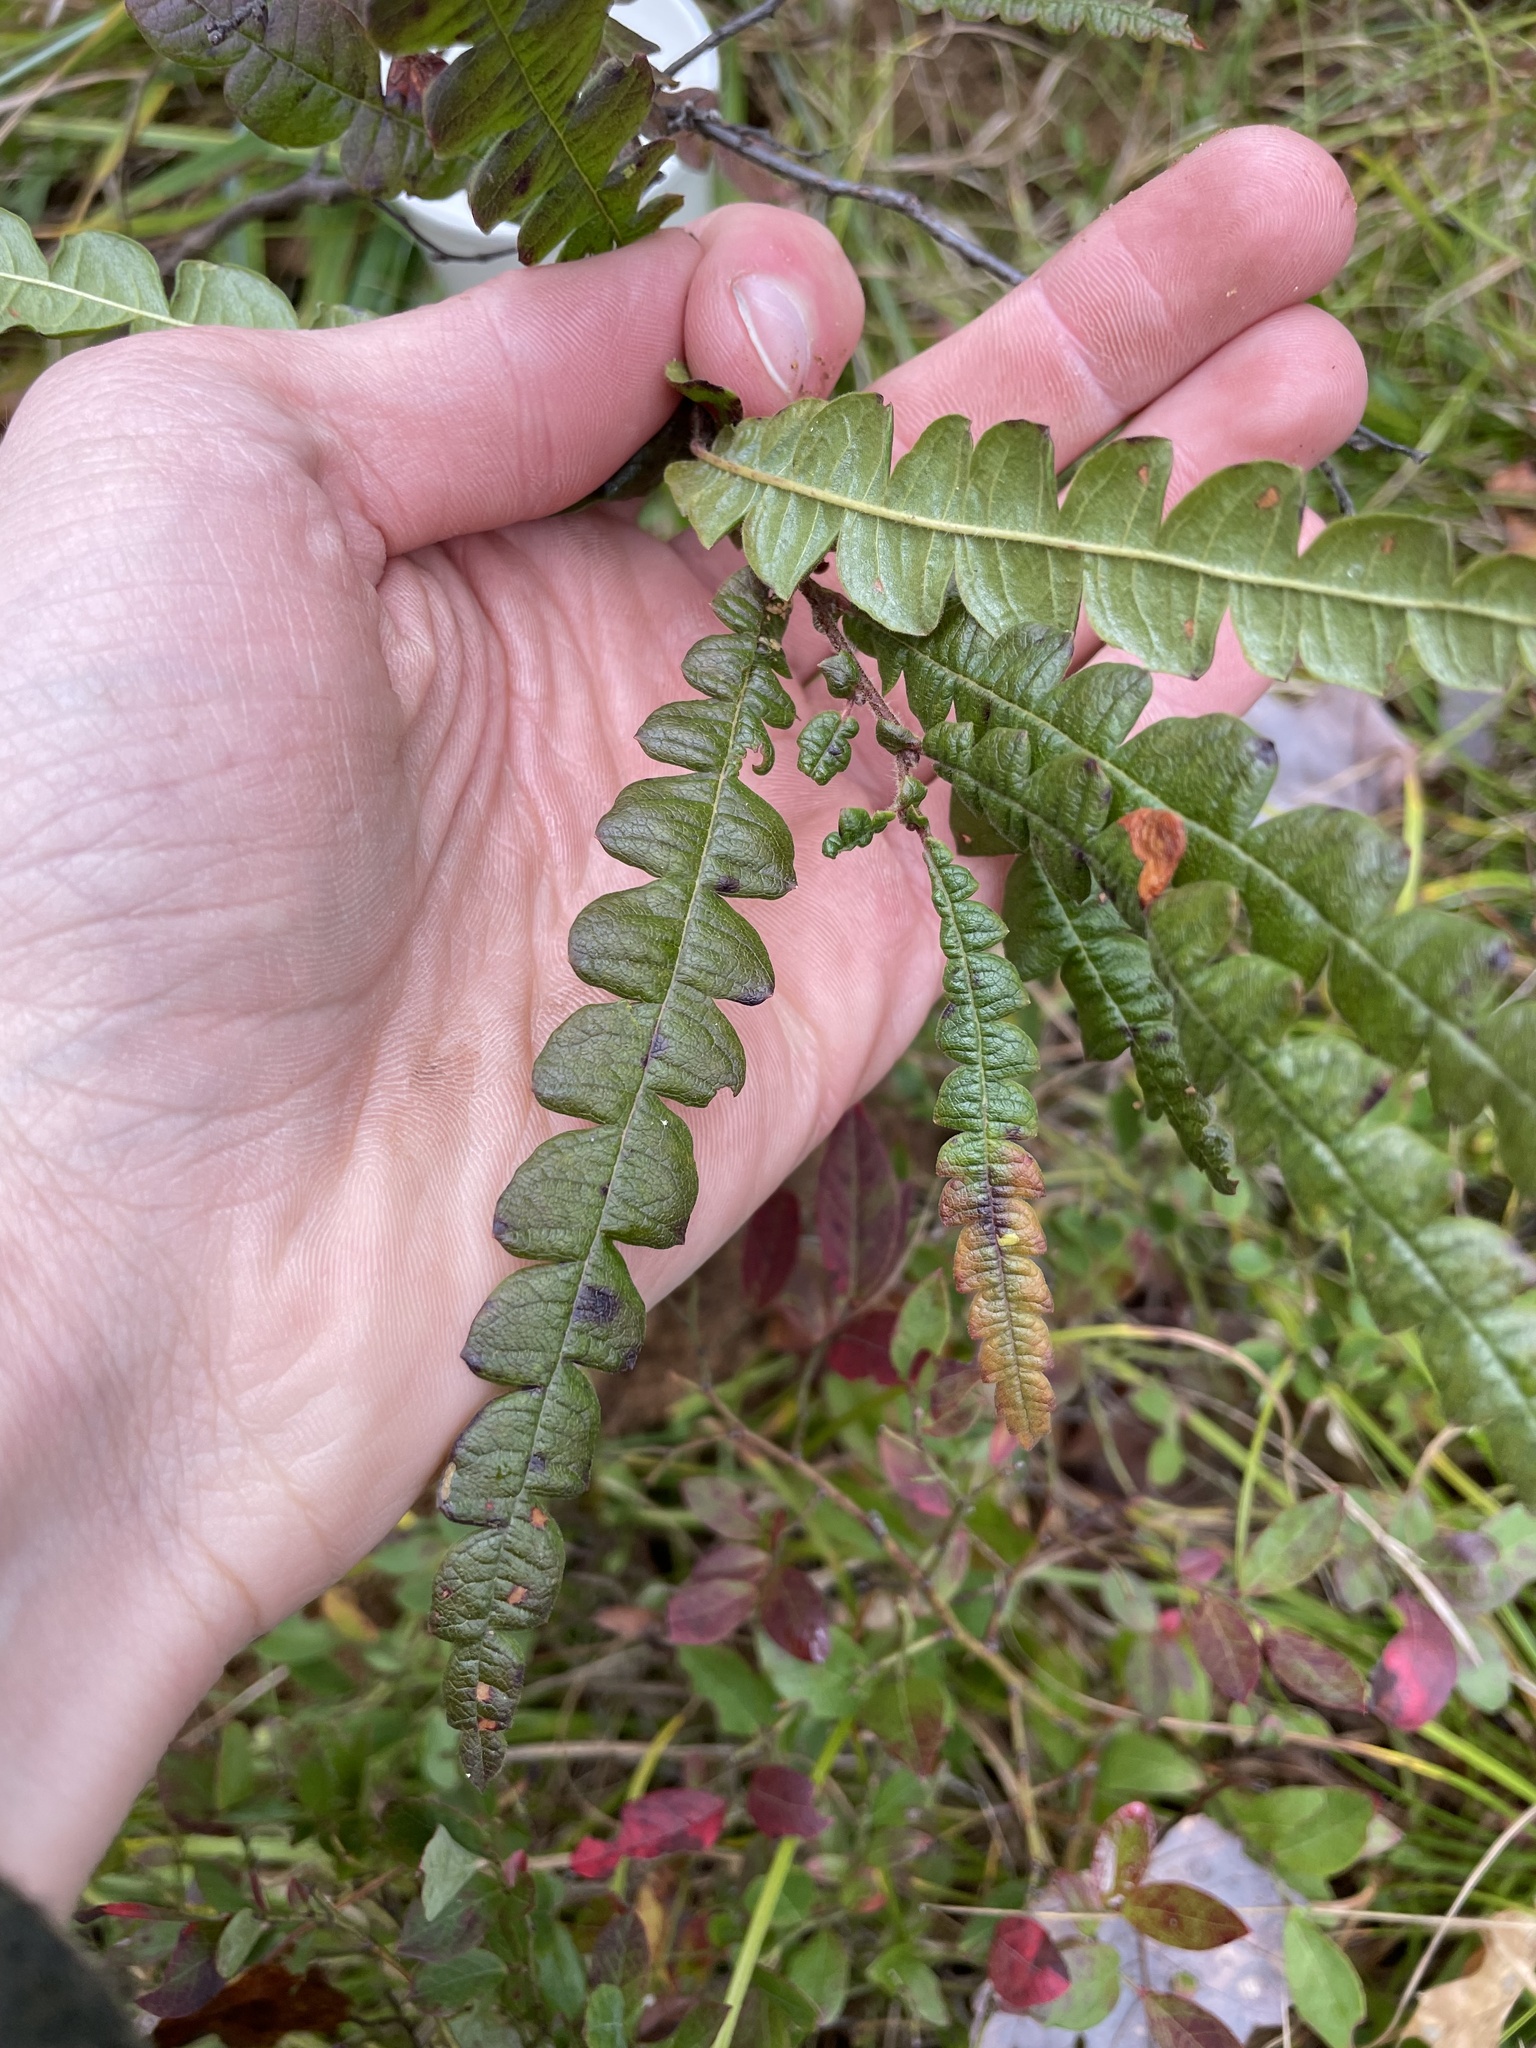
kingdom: Plantae
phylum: Tracheophyta
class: Magnoliopsida
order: Fagales
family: Myricaceae
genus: Comptonia
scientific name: Comptonia peregrina
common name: Sweet-fern
